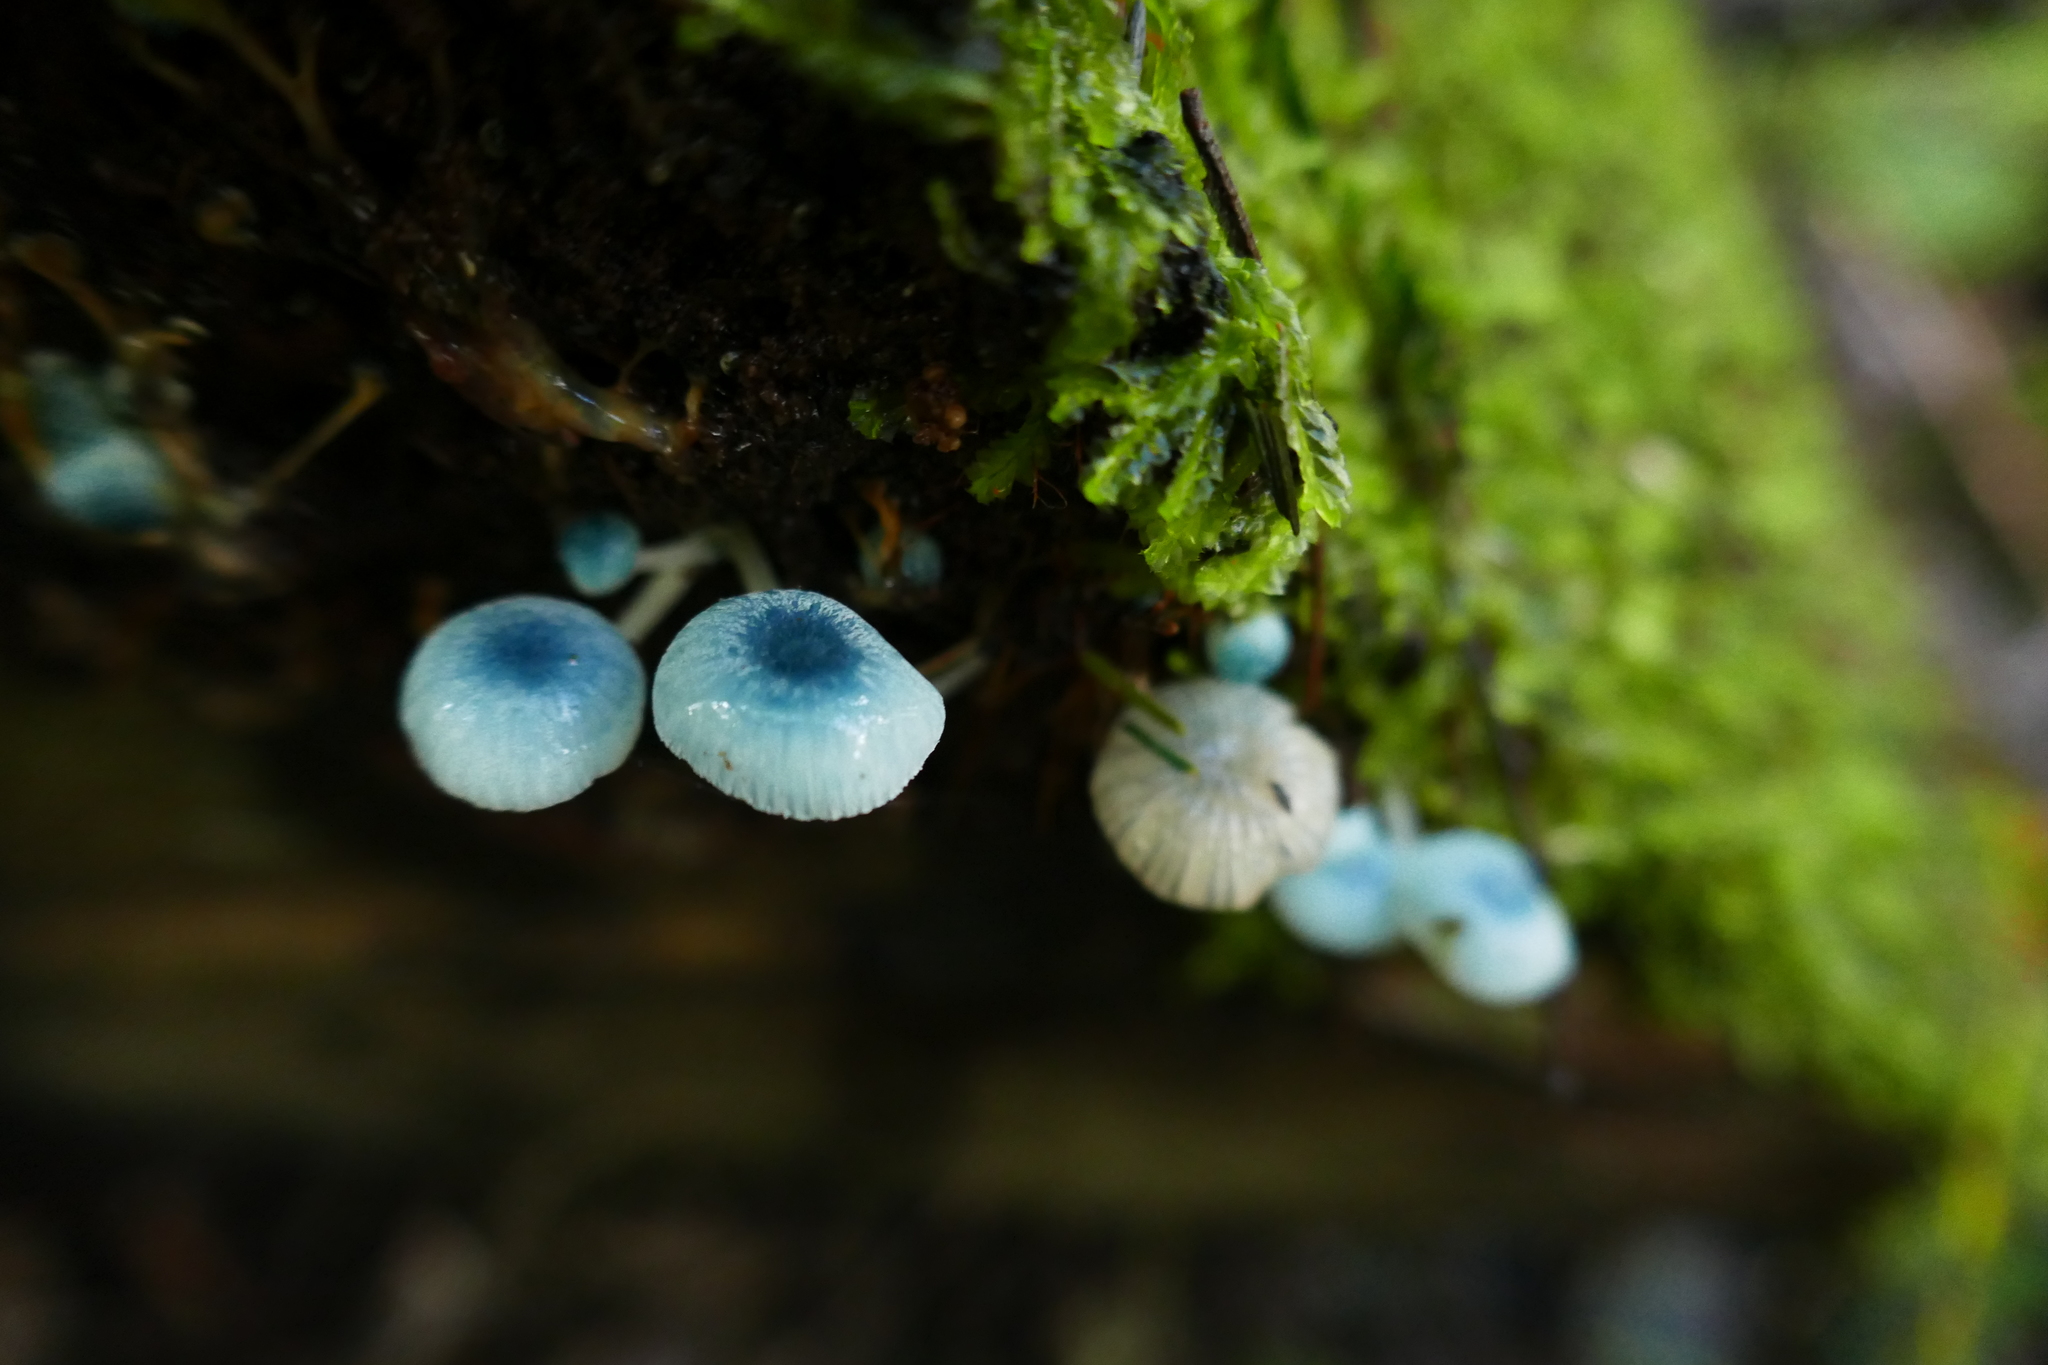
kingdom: Fungi
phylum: Basidiomycota
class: Agaricomycetes
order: Agaricales
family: Mycenaceae
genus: Mycena
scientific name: Mycena interrupta
